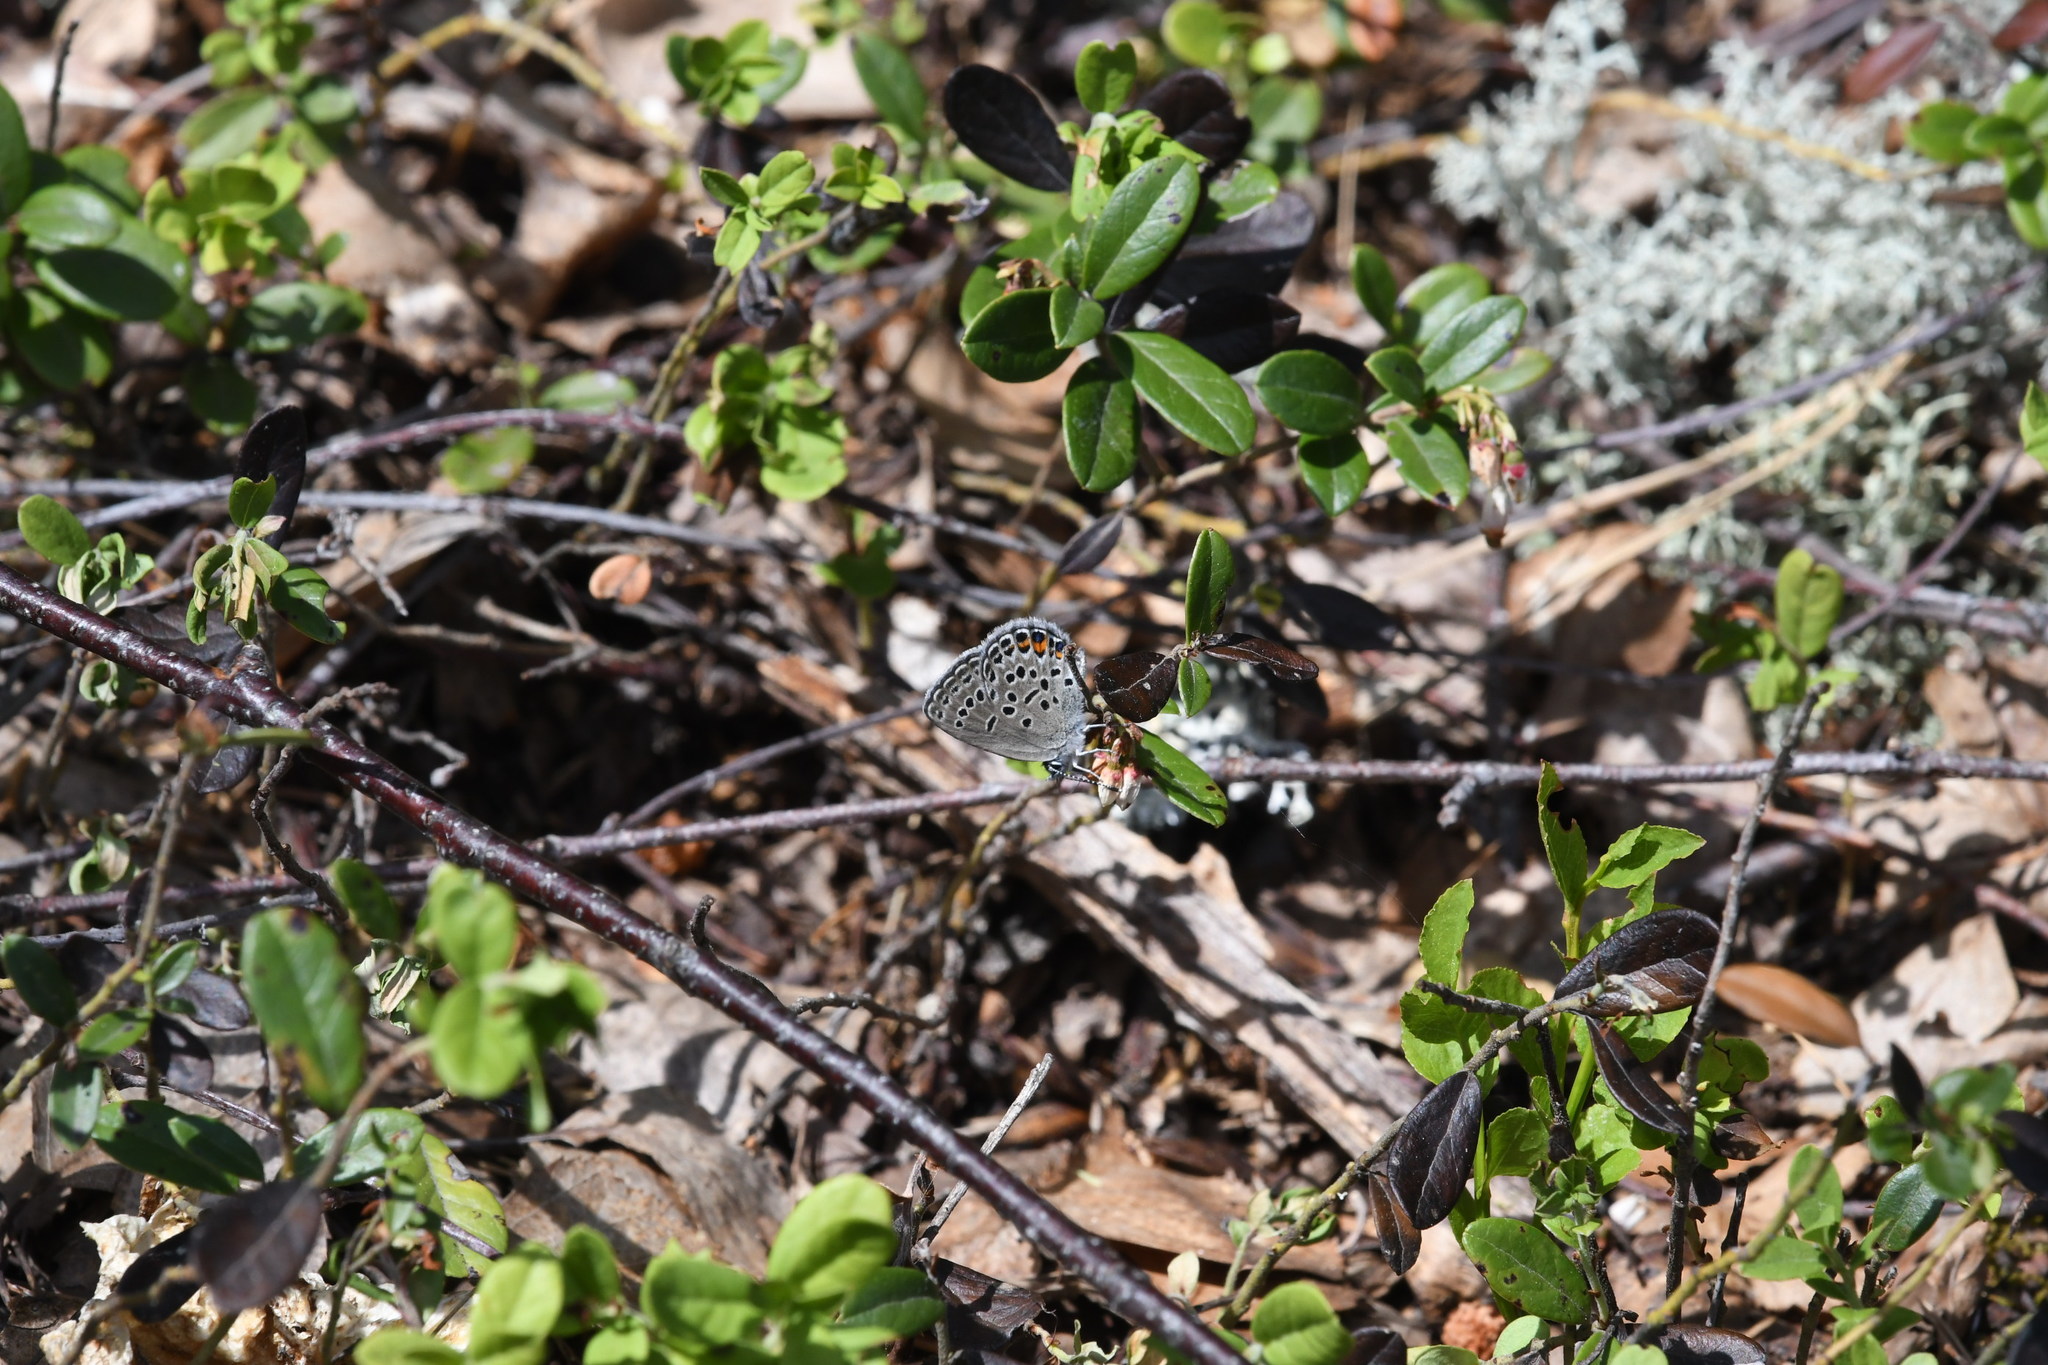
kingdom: Animalia
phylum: Arthropoda
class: Insecta
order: Lepidoptera
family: Lycaenidae
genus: Vacciniina
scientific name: Vacciniina optilete
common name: Cranberry blue
